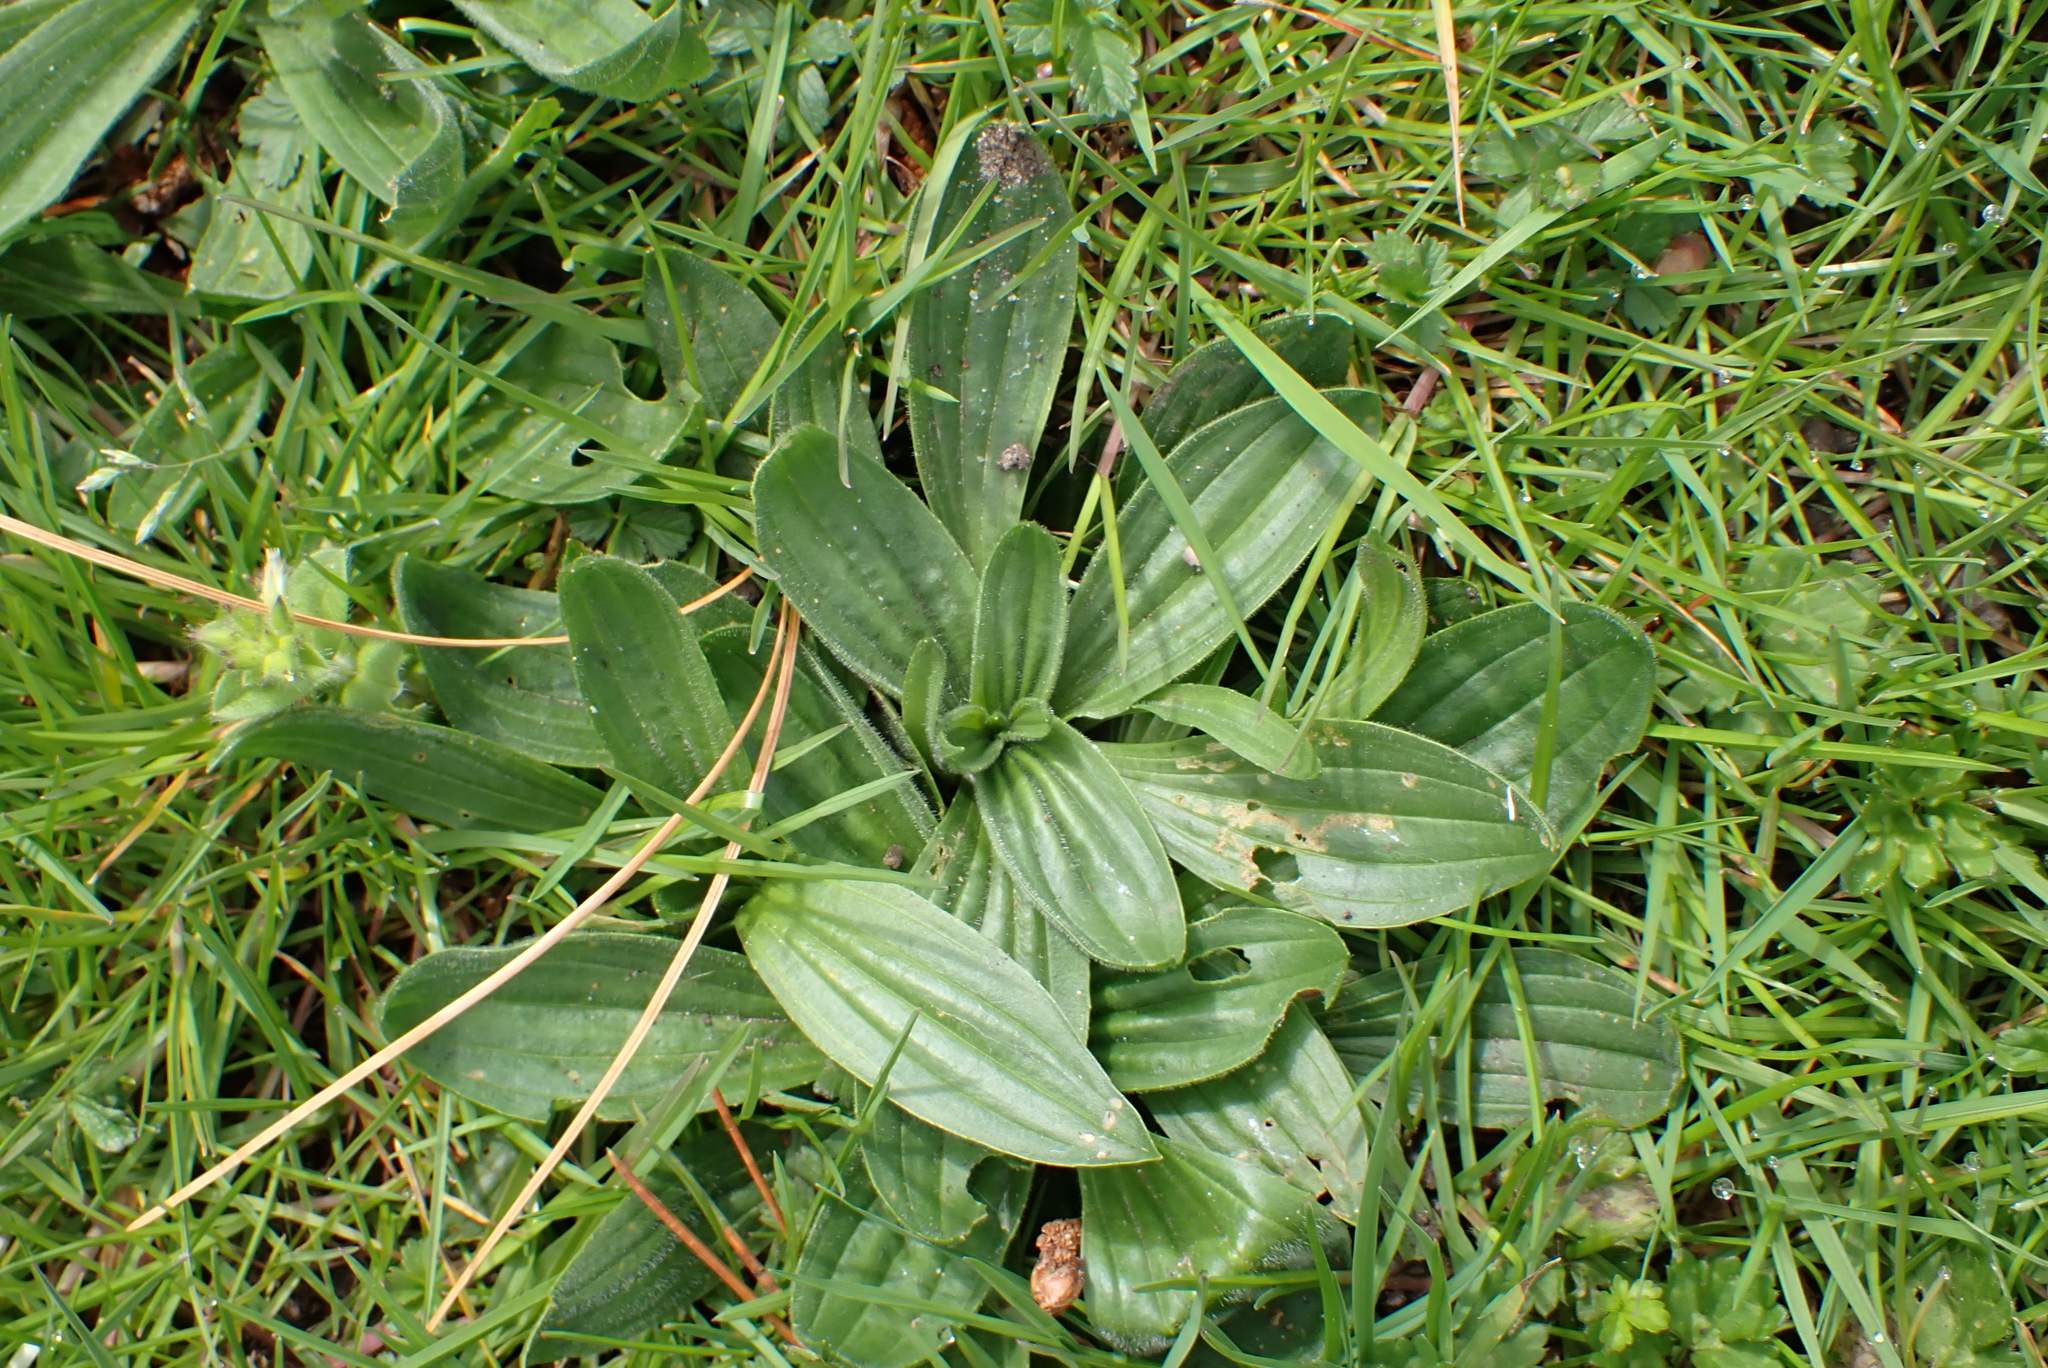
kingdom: Plantae
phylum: Tracheophyta
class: Magnoliopsida
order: Lamiales
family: Plantaginaceae
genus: Plantago
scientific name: Plantago lanceolata
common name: Ribwort plantain
